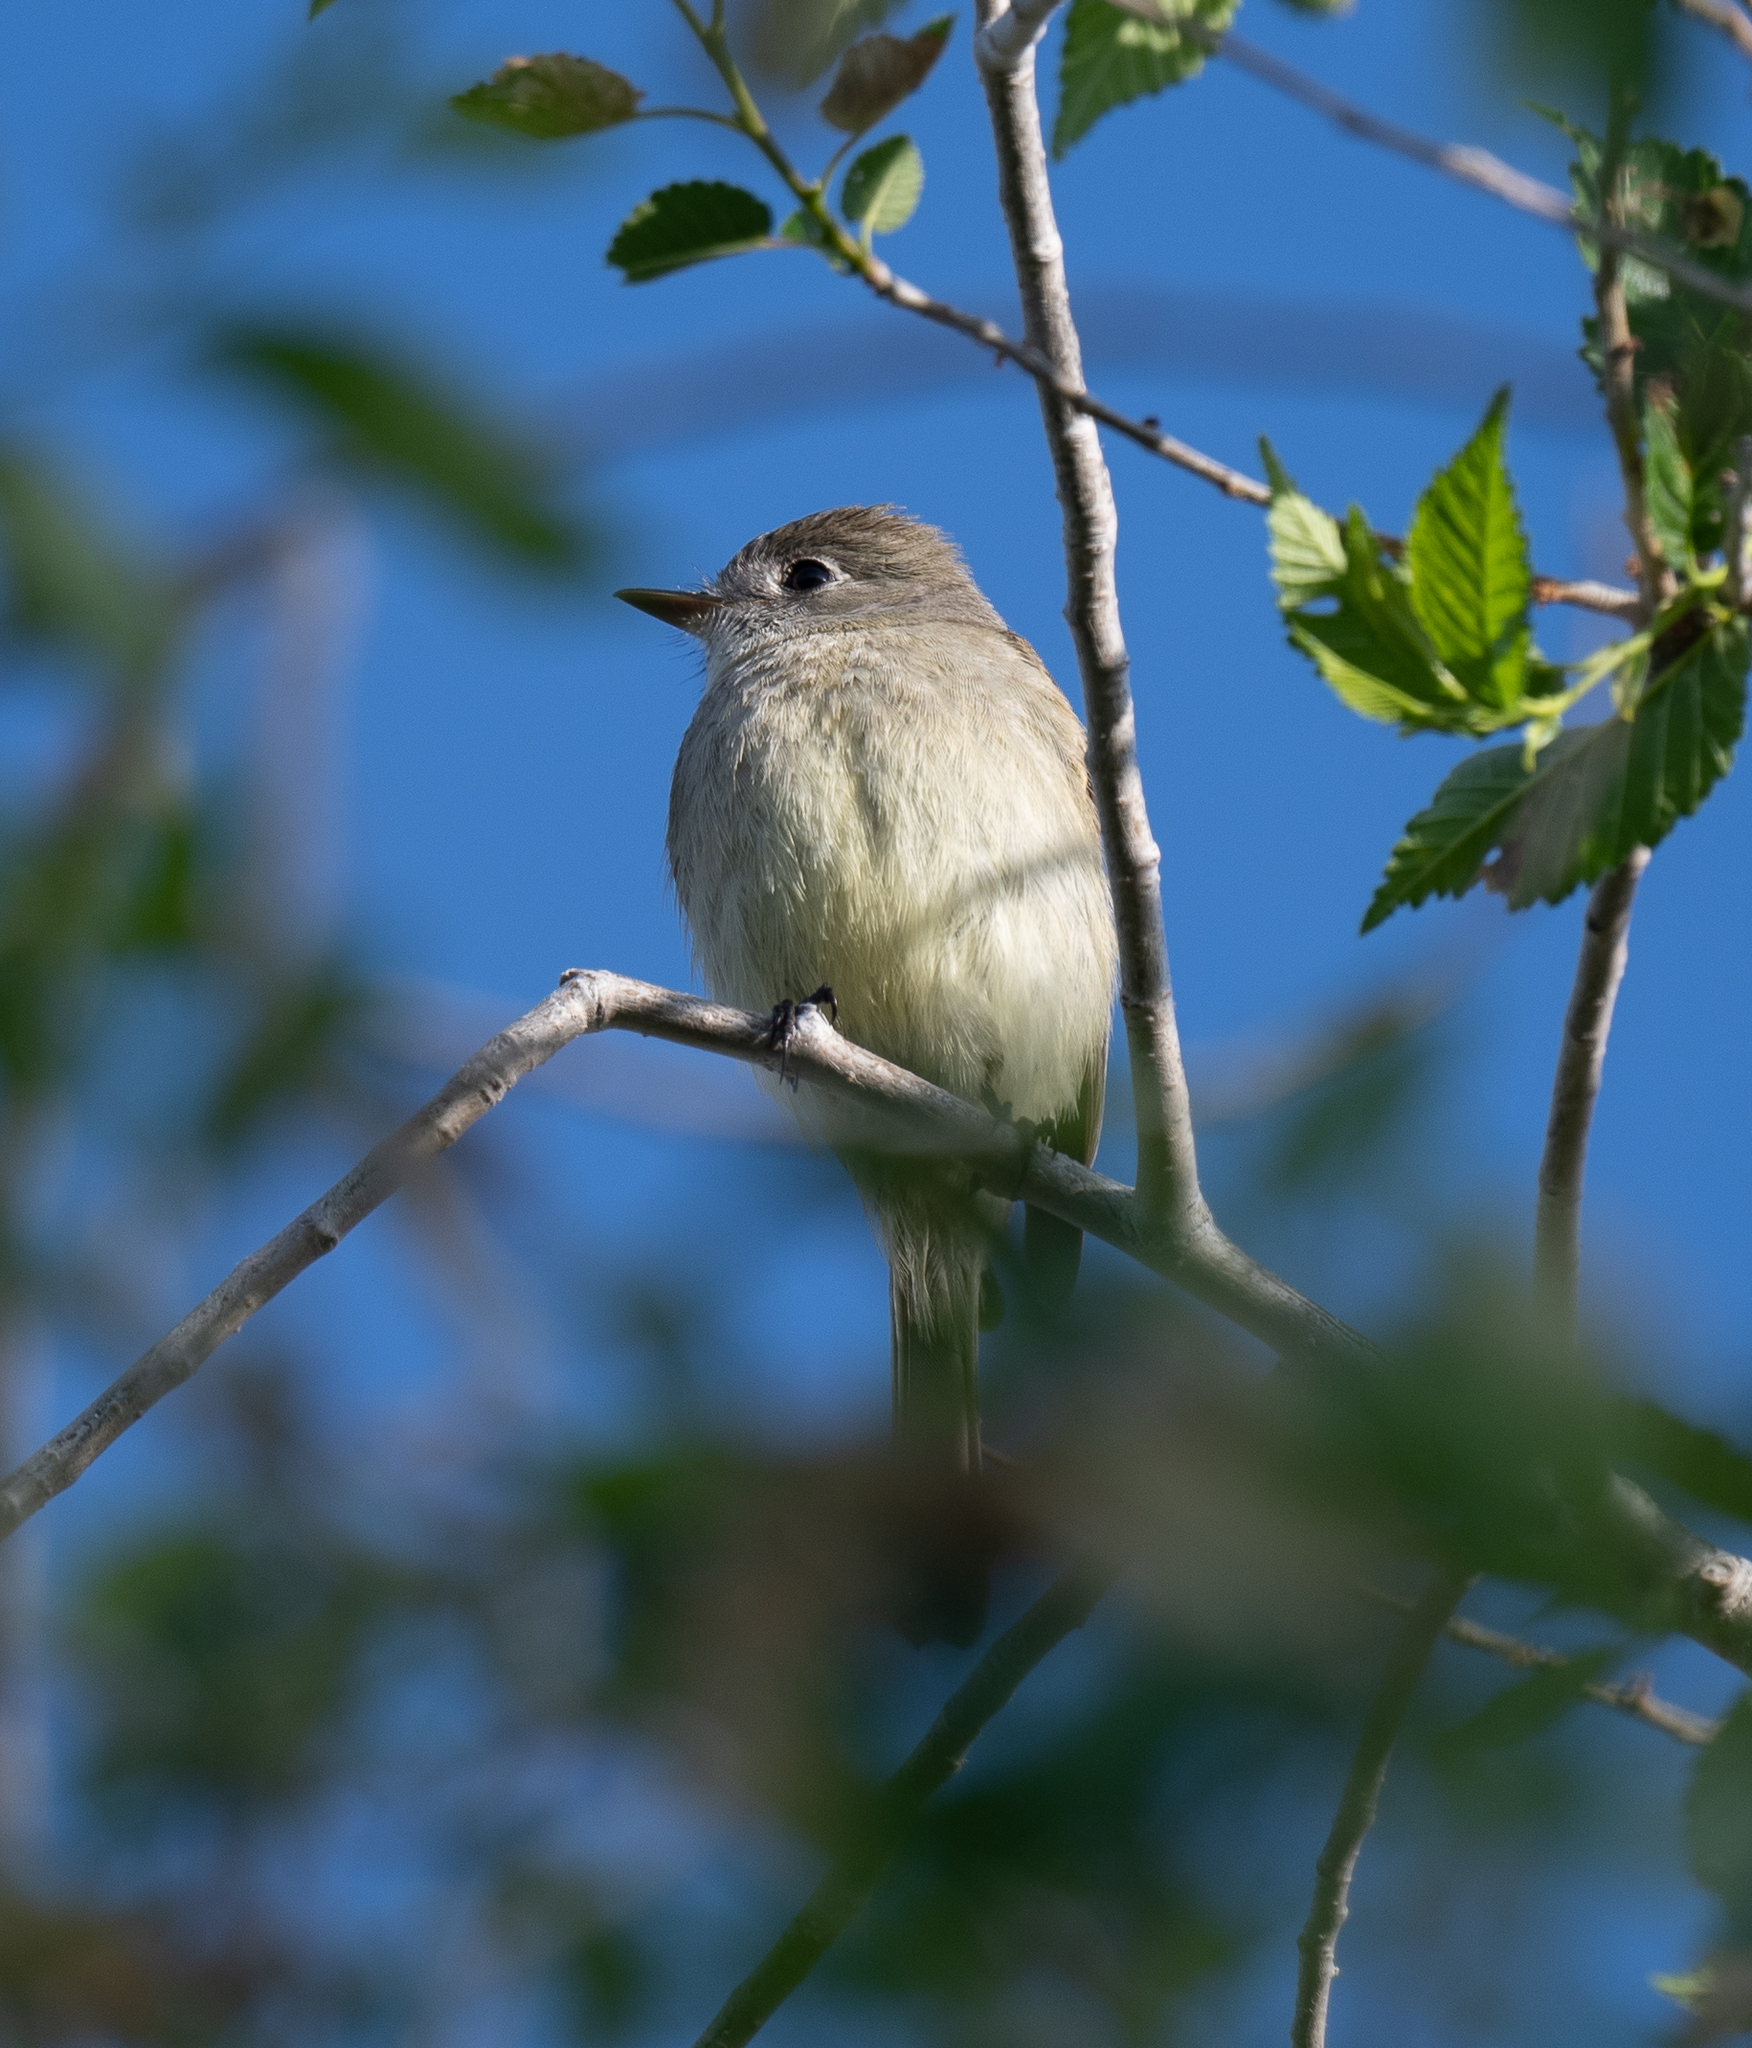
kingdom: Animalia
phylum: Chordata
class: Aves
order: Passeriformes
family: Tyrannidae
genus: Empidonax
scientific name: Empidonax oberholseri
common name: Dusky flycatcher
